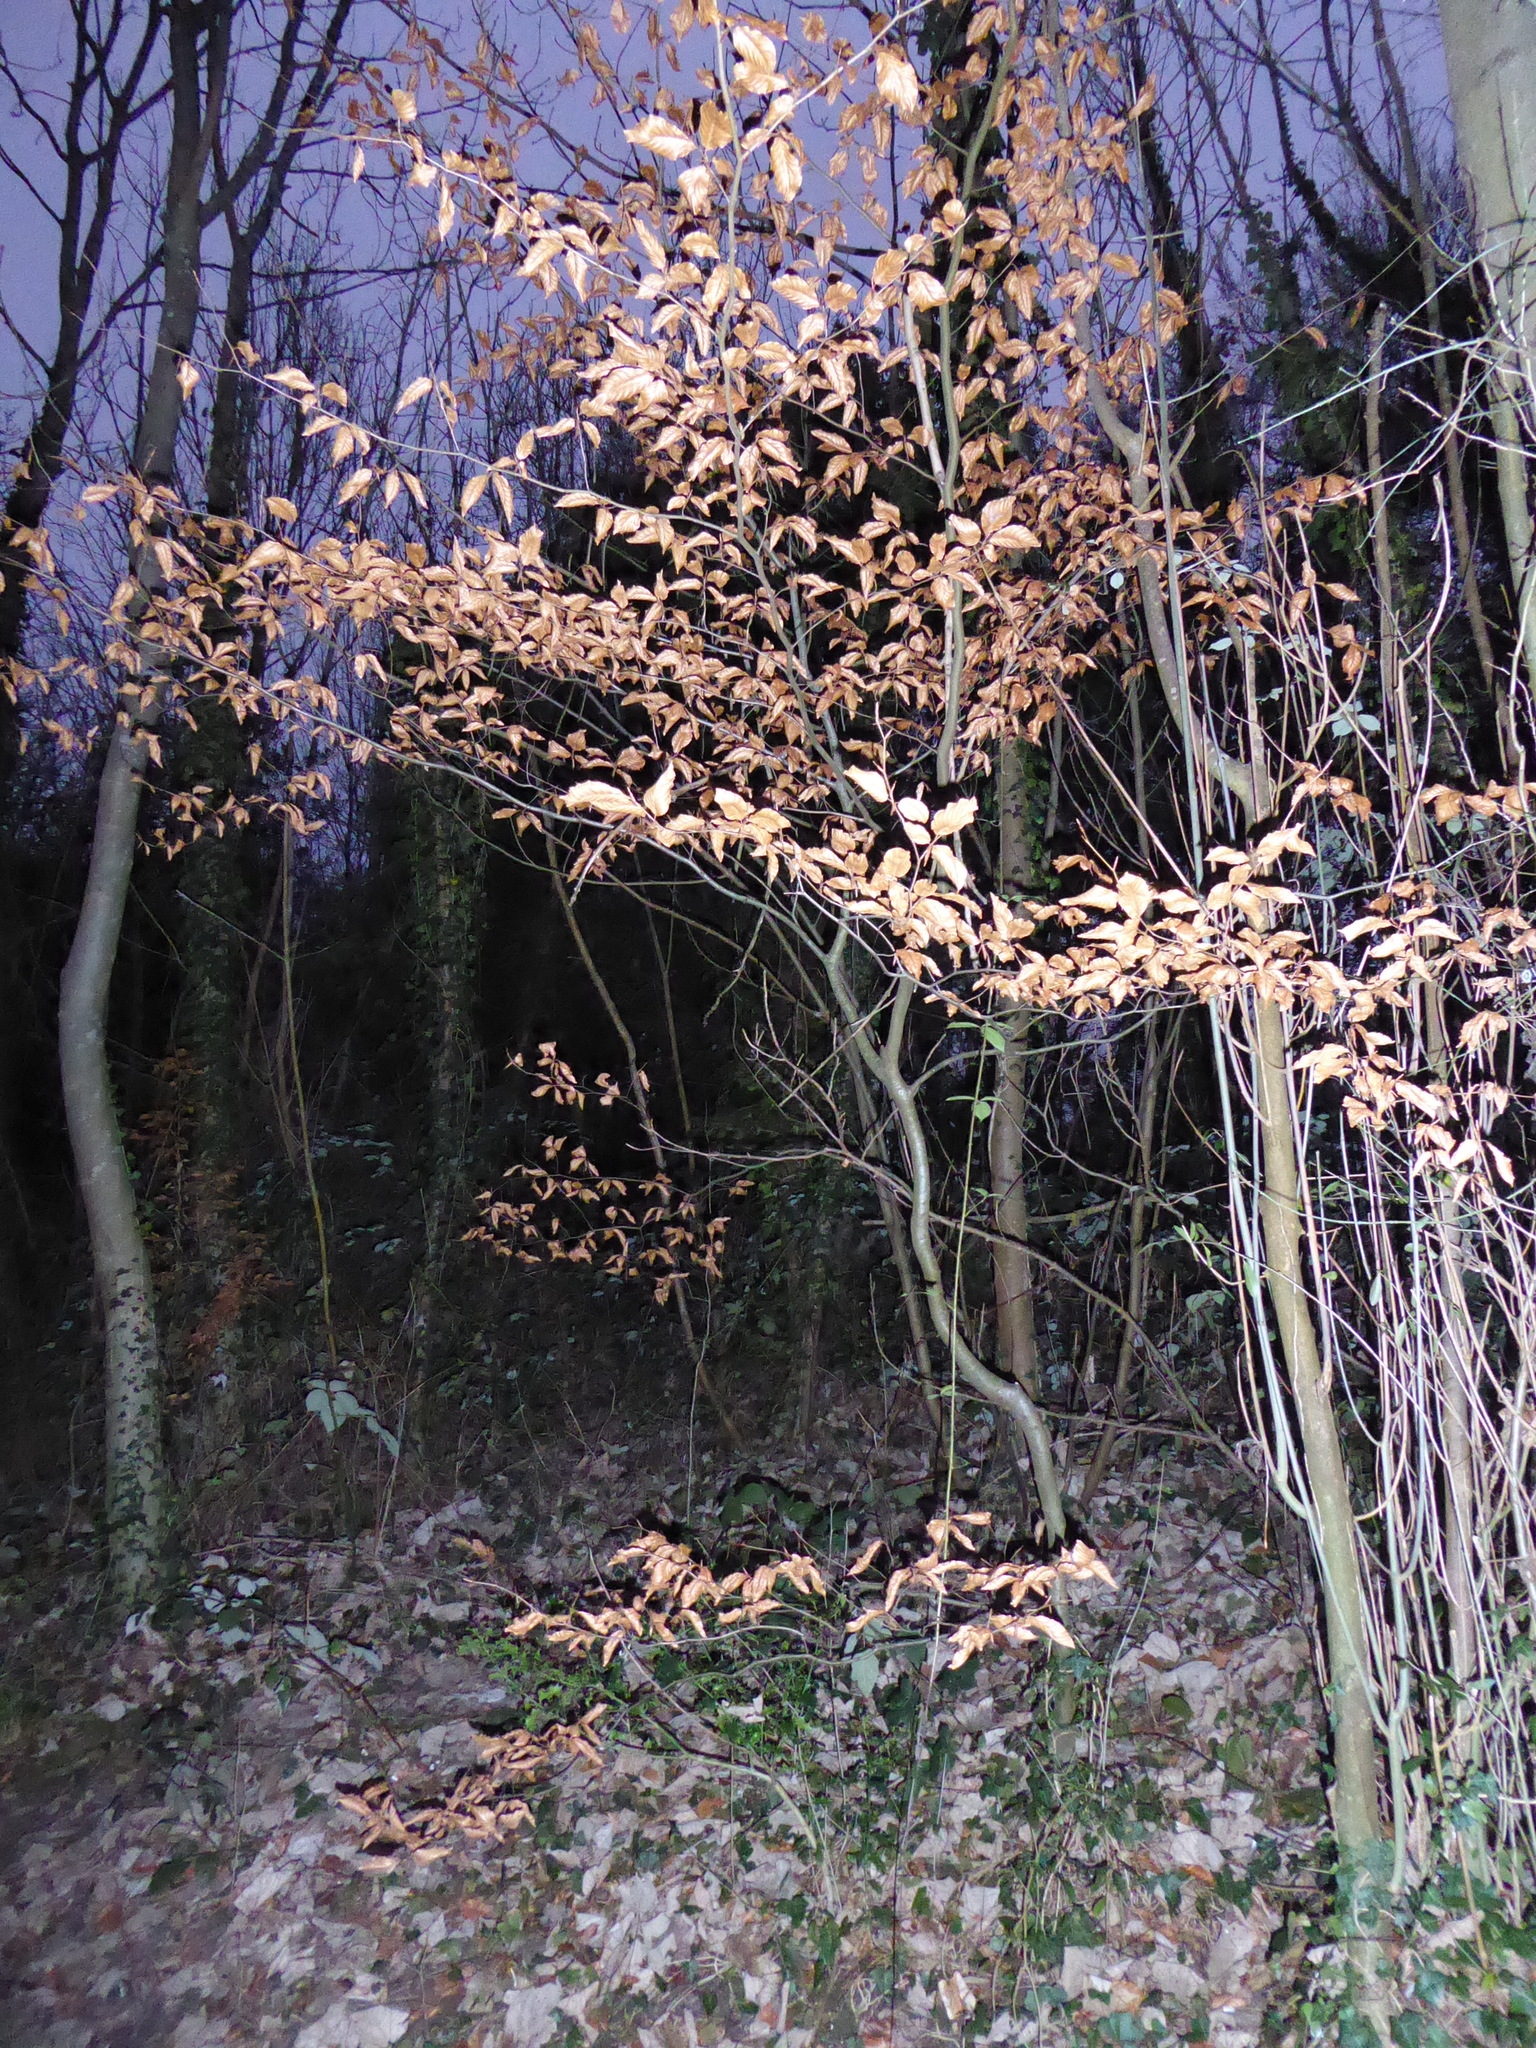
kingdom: Plantae
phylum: Tracheophyta
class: Magnoliopsida
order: Fagales
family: Fagaceae
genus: Fagus
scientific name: Fagus sylvatica
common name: Beech
